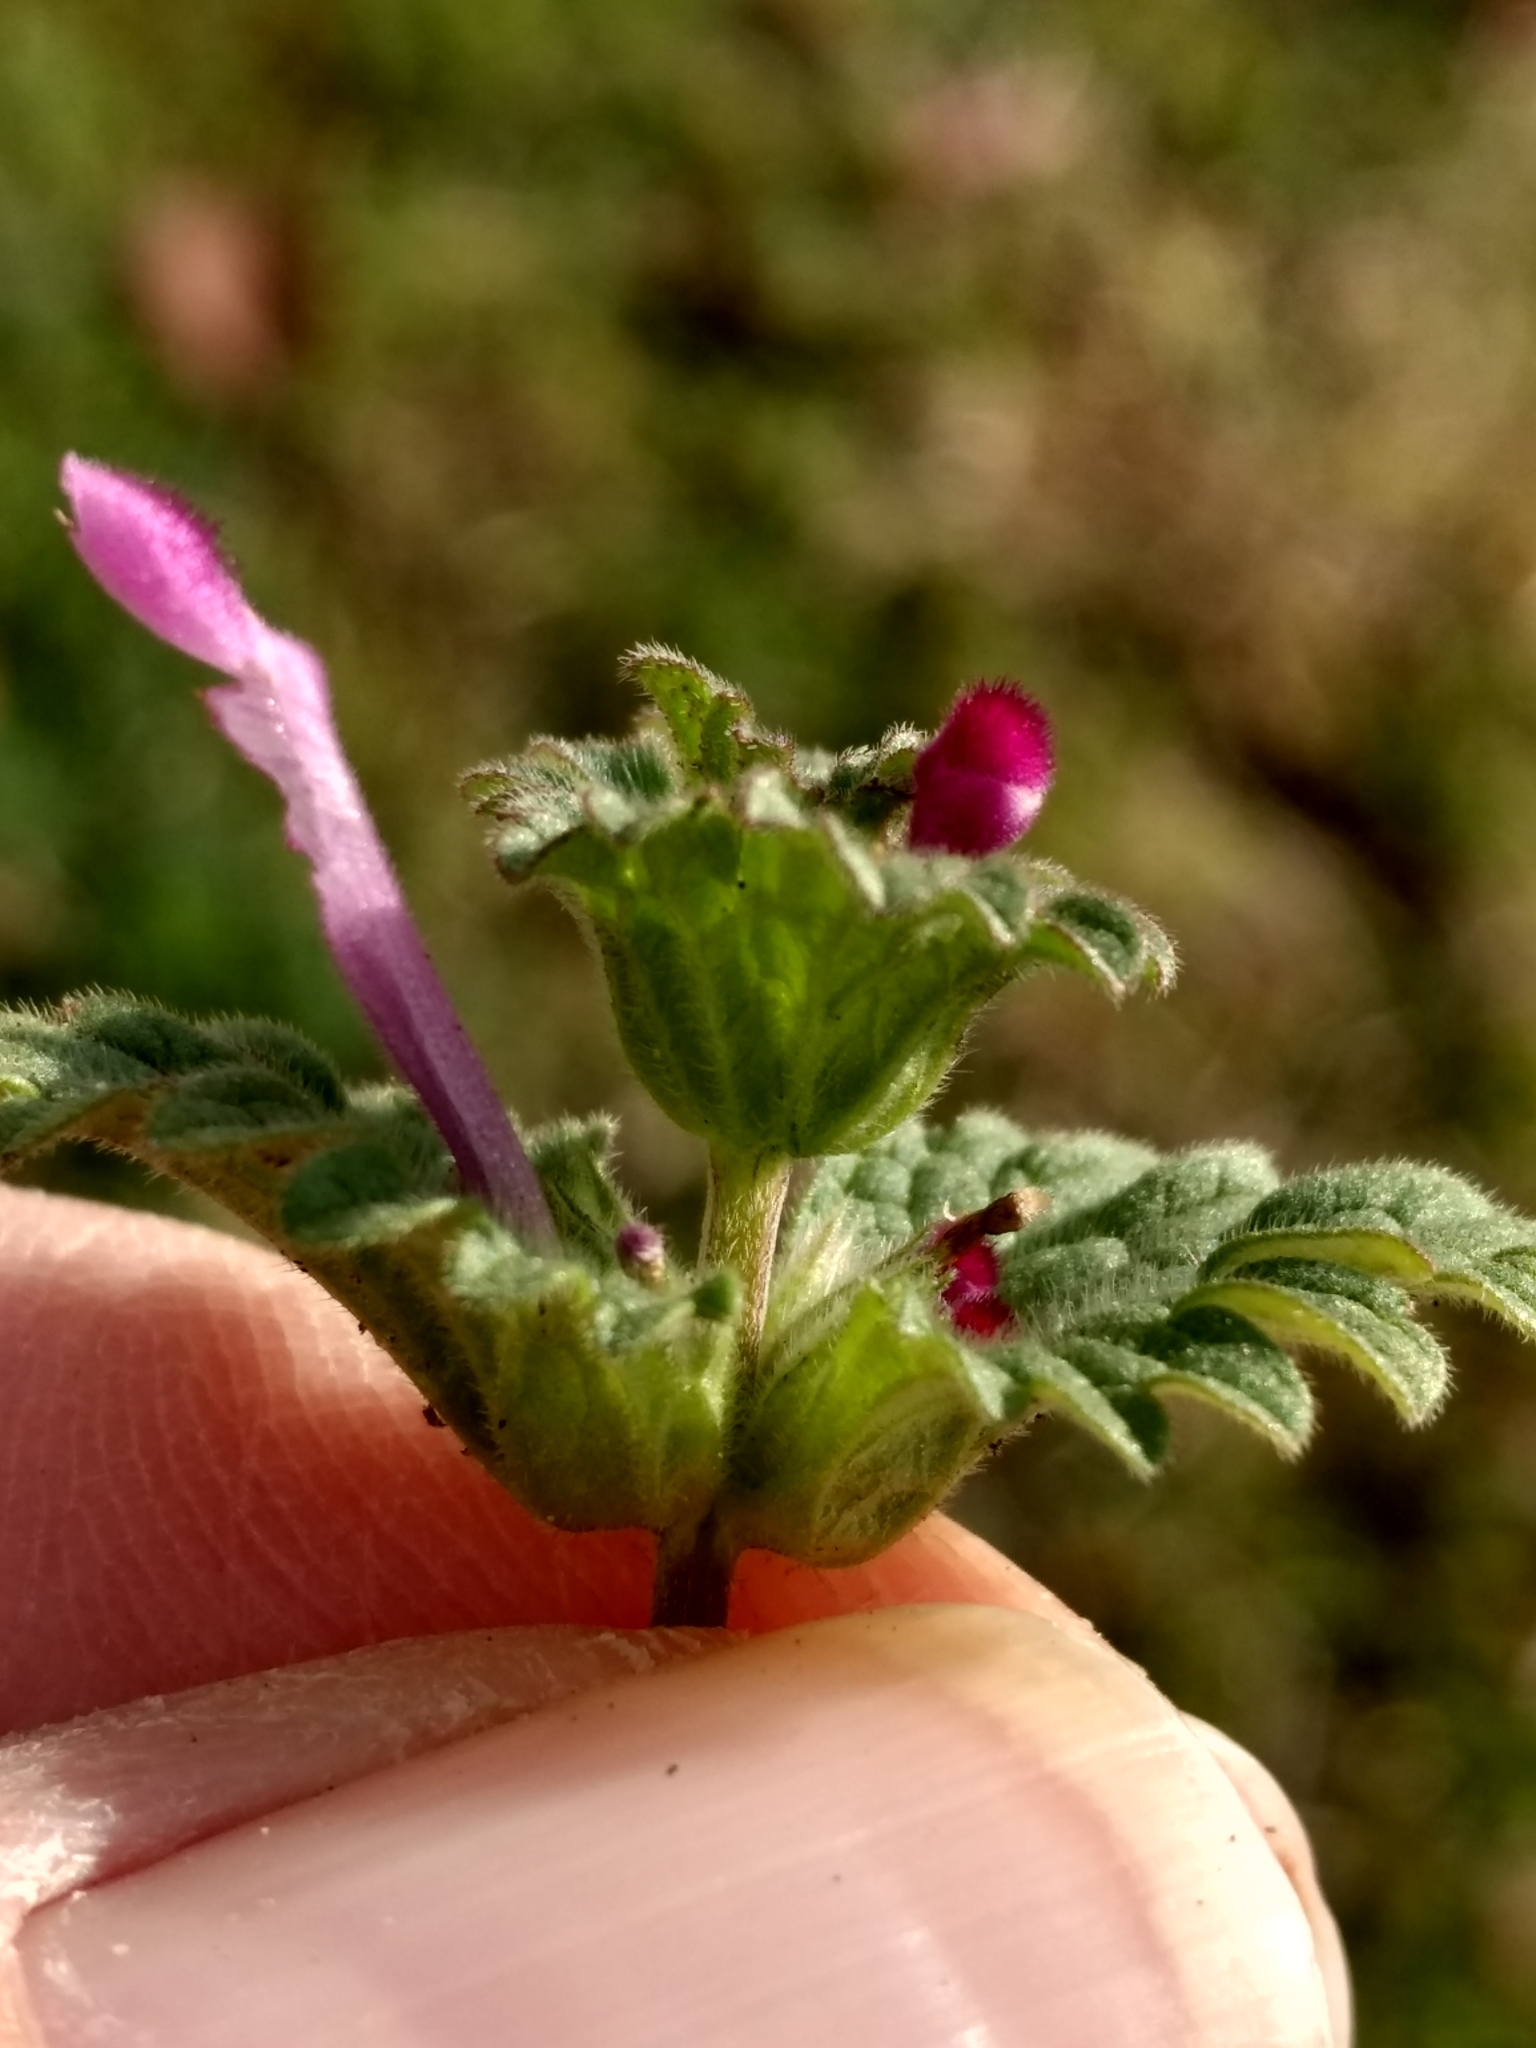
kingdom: Plantae
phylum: Tracheophyta
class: Magnoliopsida
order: Lamiales
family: Lamiaceae
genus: Lamium
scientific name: Lamium amplexicaule
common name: Henbit dead-nettle
